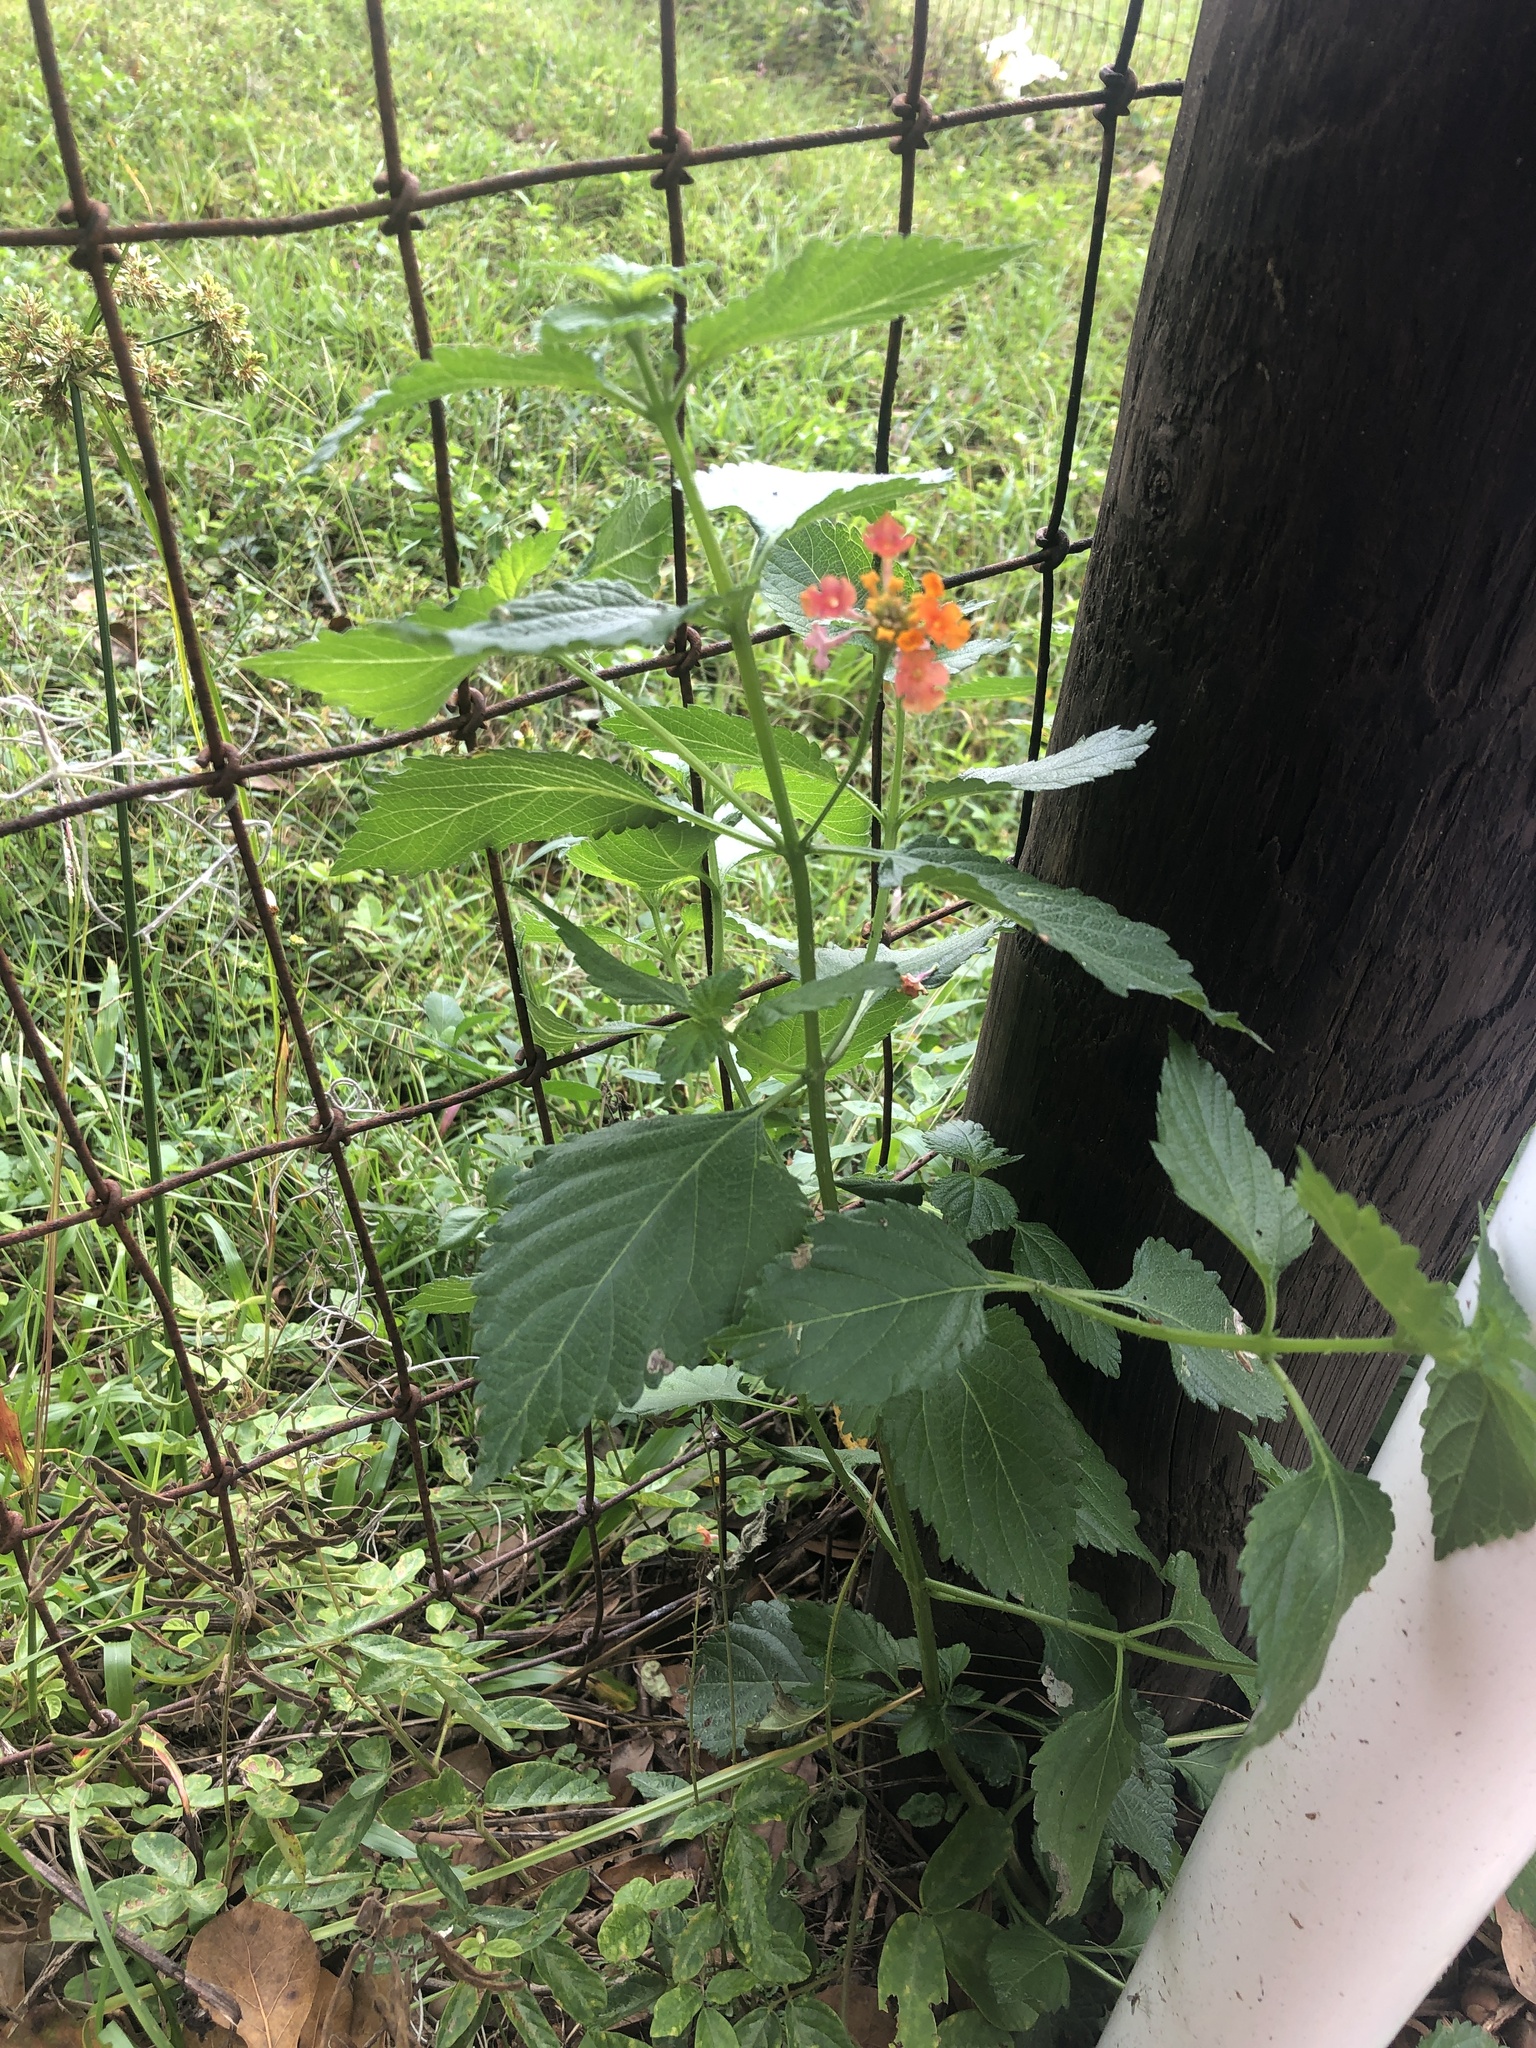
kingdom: Plantae
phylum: Tracheophyta
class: Magnoliopsida
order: Lamiales
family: Verbenaceae
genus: Lantana
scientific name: Lantana strigocamara
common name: Lantana
